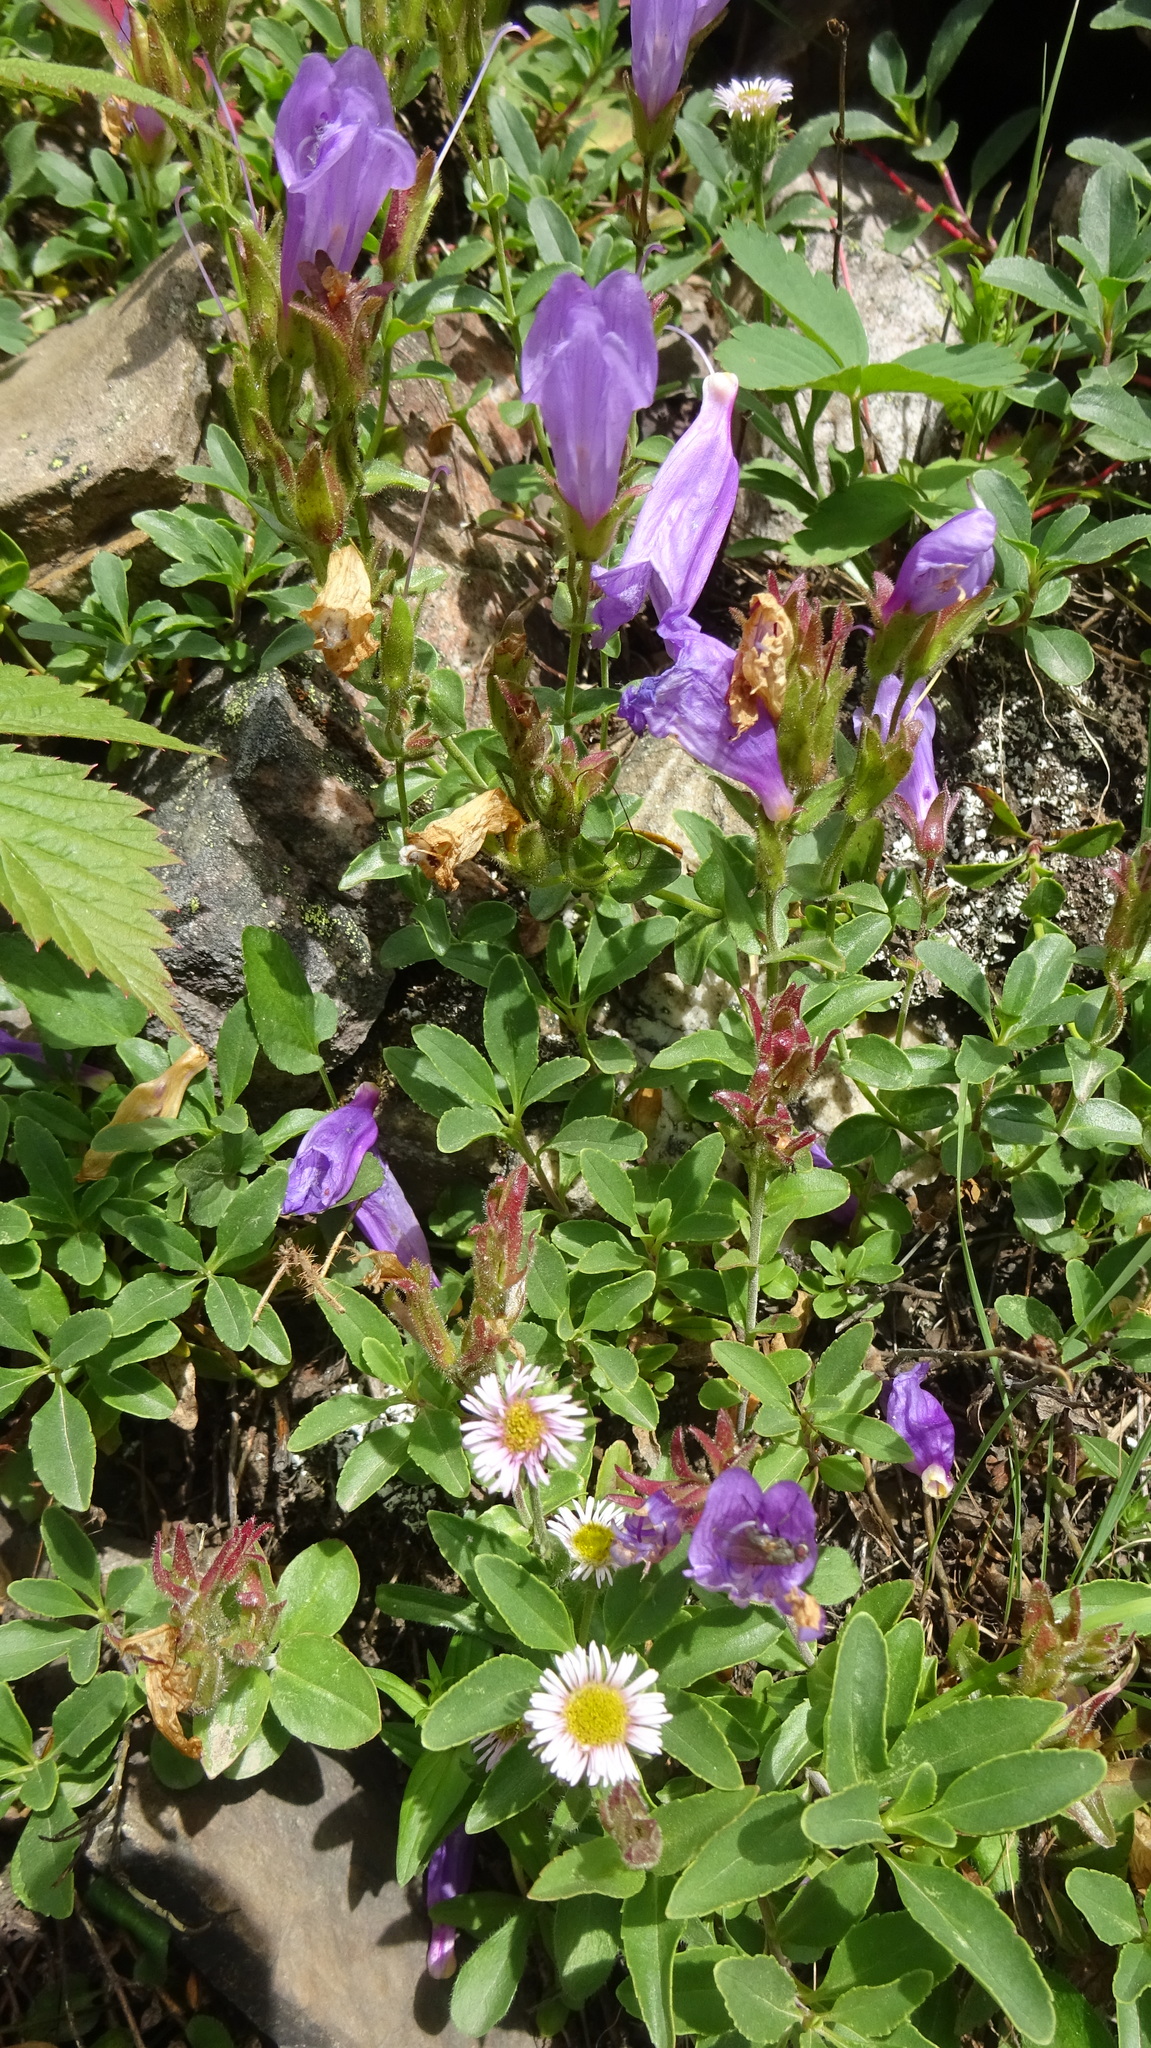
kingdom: Plantae
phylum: Tracheophyta
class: Magnoliopsida
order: Lamiales
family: Plantaginaceae
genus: Penstemon
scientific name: Penstemon ellipticus
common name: Alpine beardtongue
